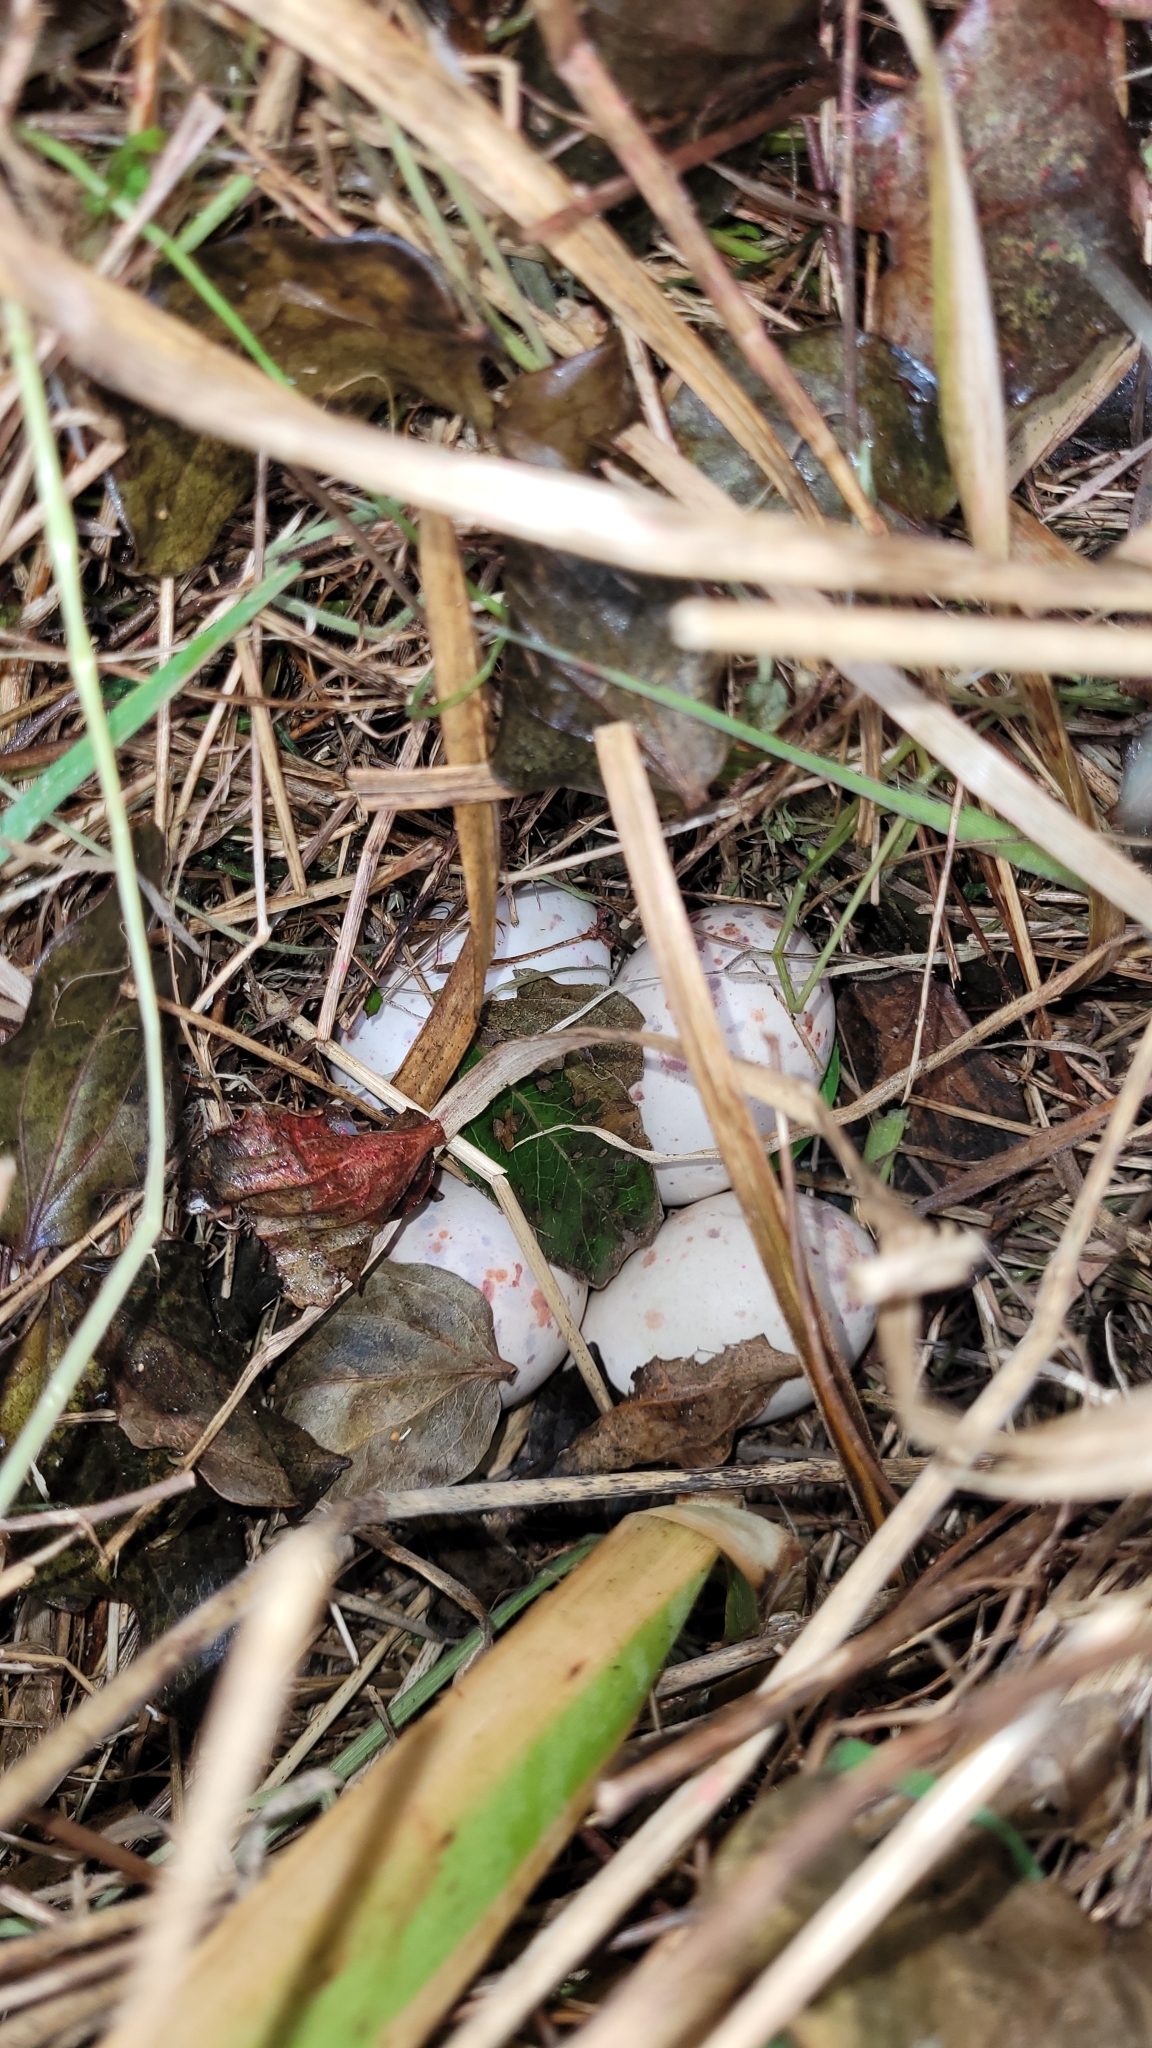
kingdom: Animalia
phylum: Chordata
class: Aves
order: Gruiformes
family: Rallidae
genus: Gallirallus
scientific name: Gallirallus australis
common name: Weka
